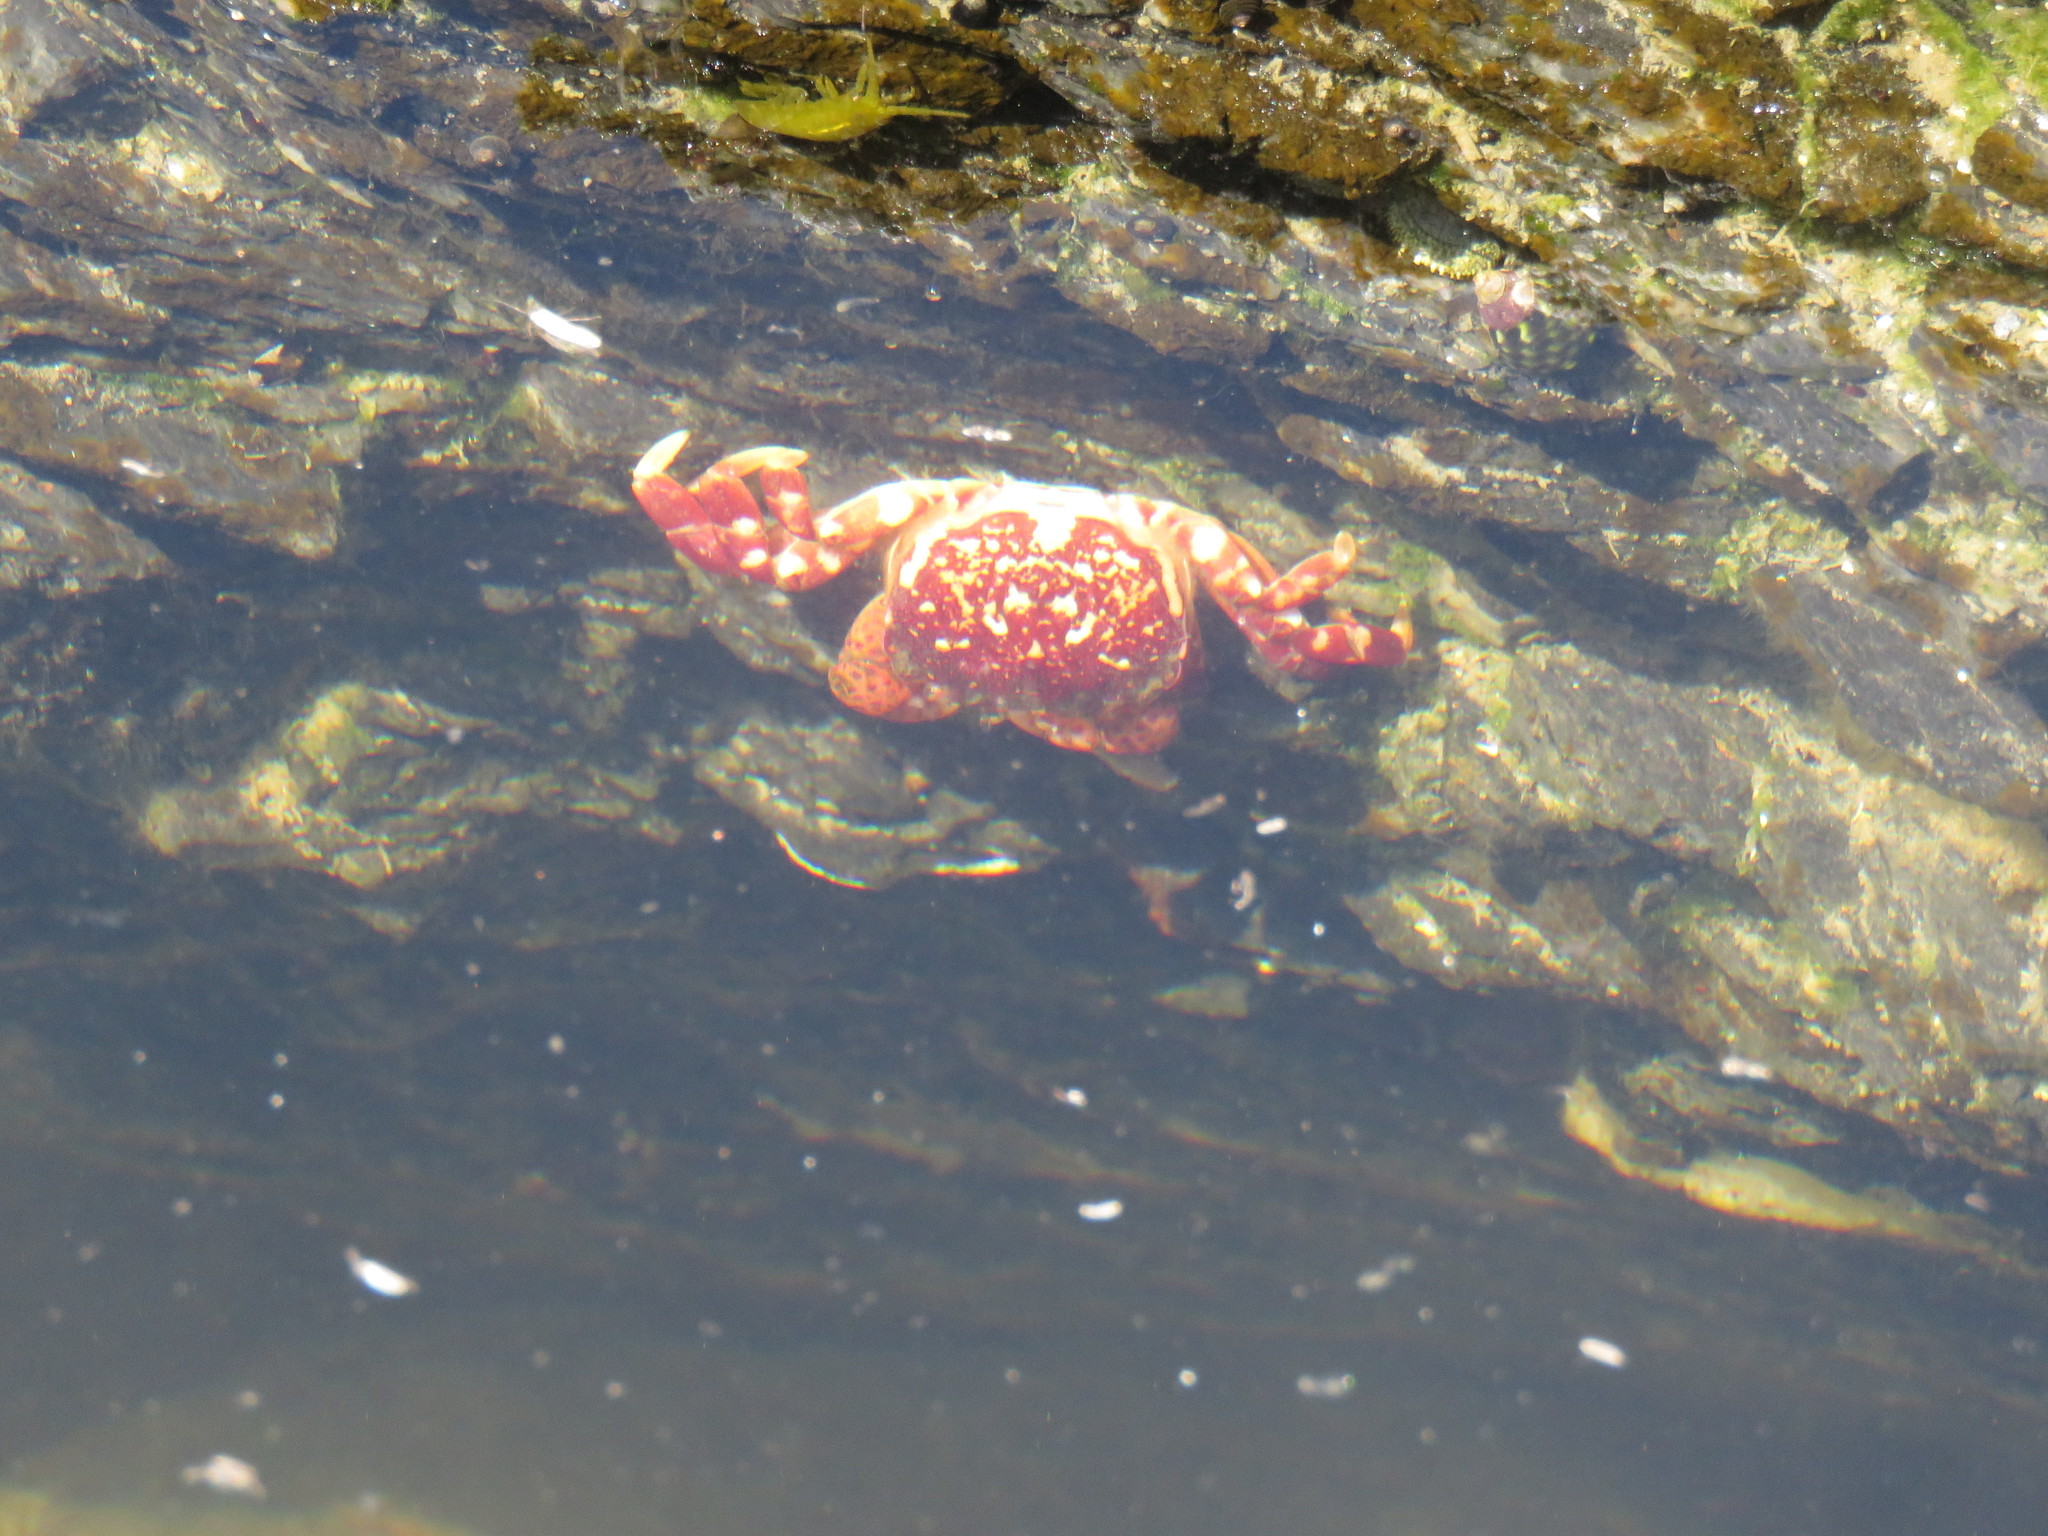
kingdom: Animalia
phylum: Arthropoda
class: Malacostraca
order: Decapoda
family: Varunidae
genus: Hemigrapsus
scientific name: Hemigrapsus nudus
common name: Purple shore crab
